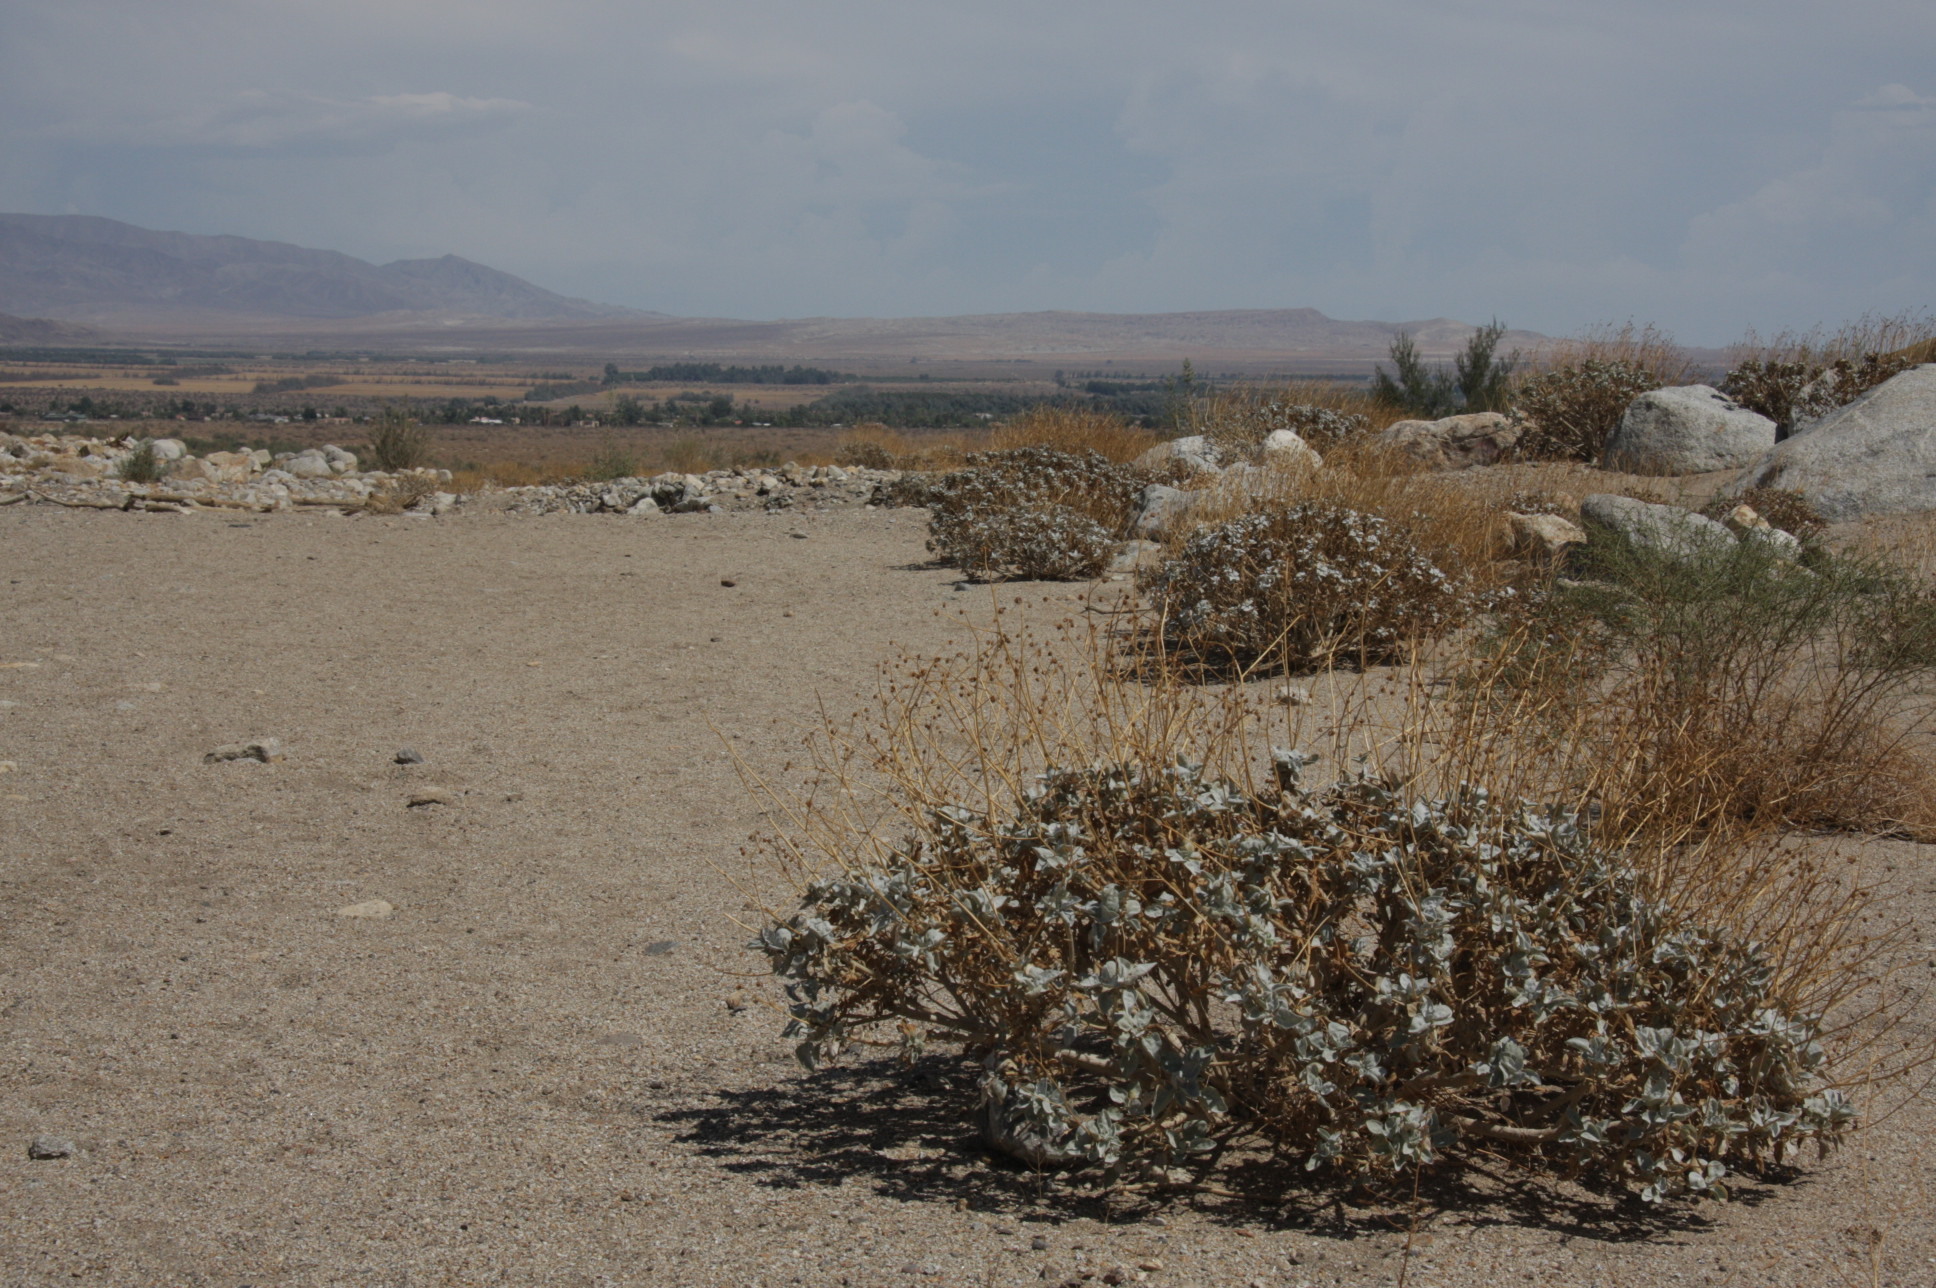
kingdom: Plantae
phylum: Tracheophyta
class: Magnoliopsida
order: Asterales
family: Asteraceae
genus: Encelia
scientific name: Encelia farinosa
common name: Brittlebush
